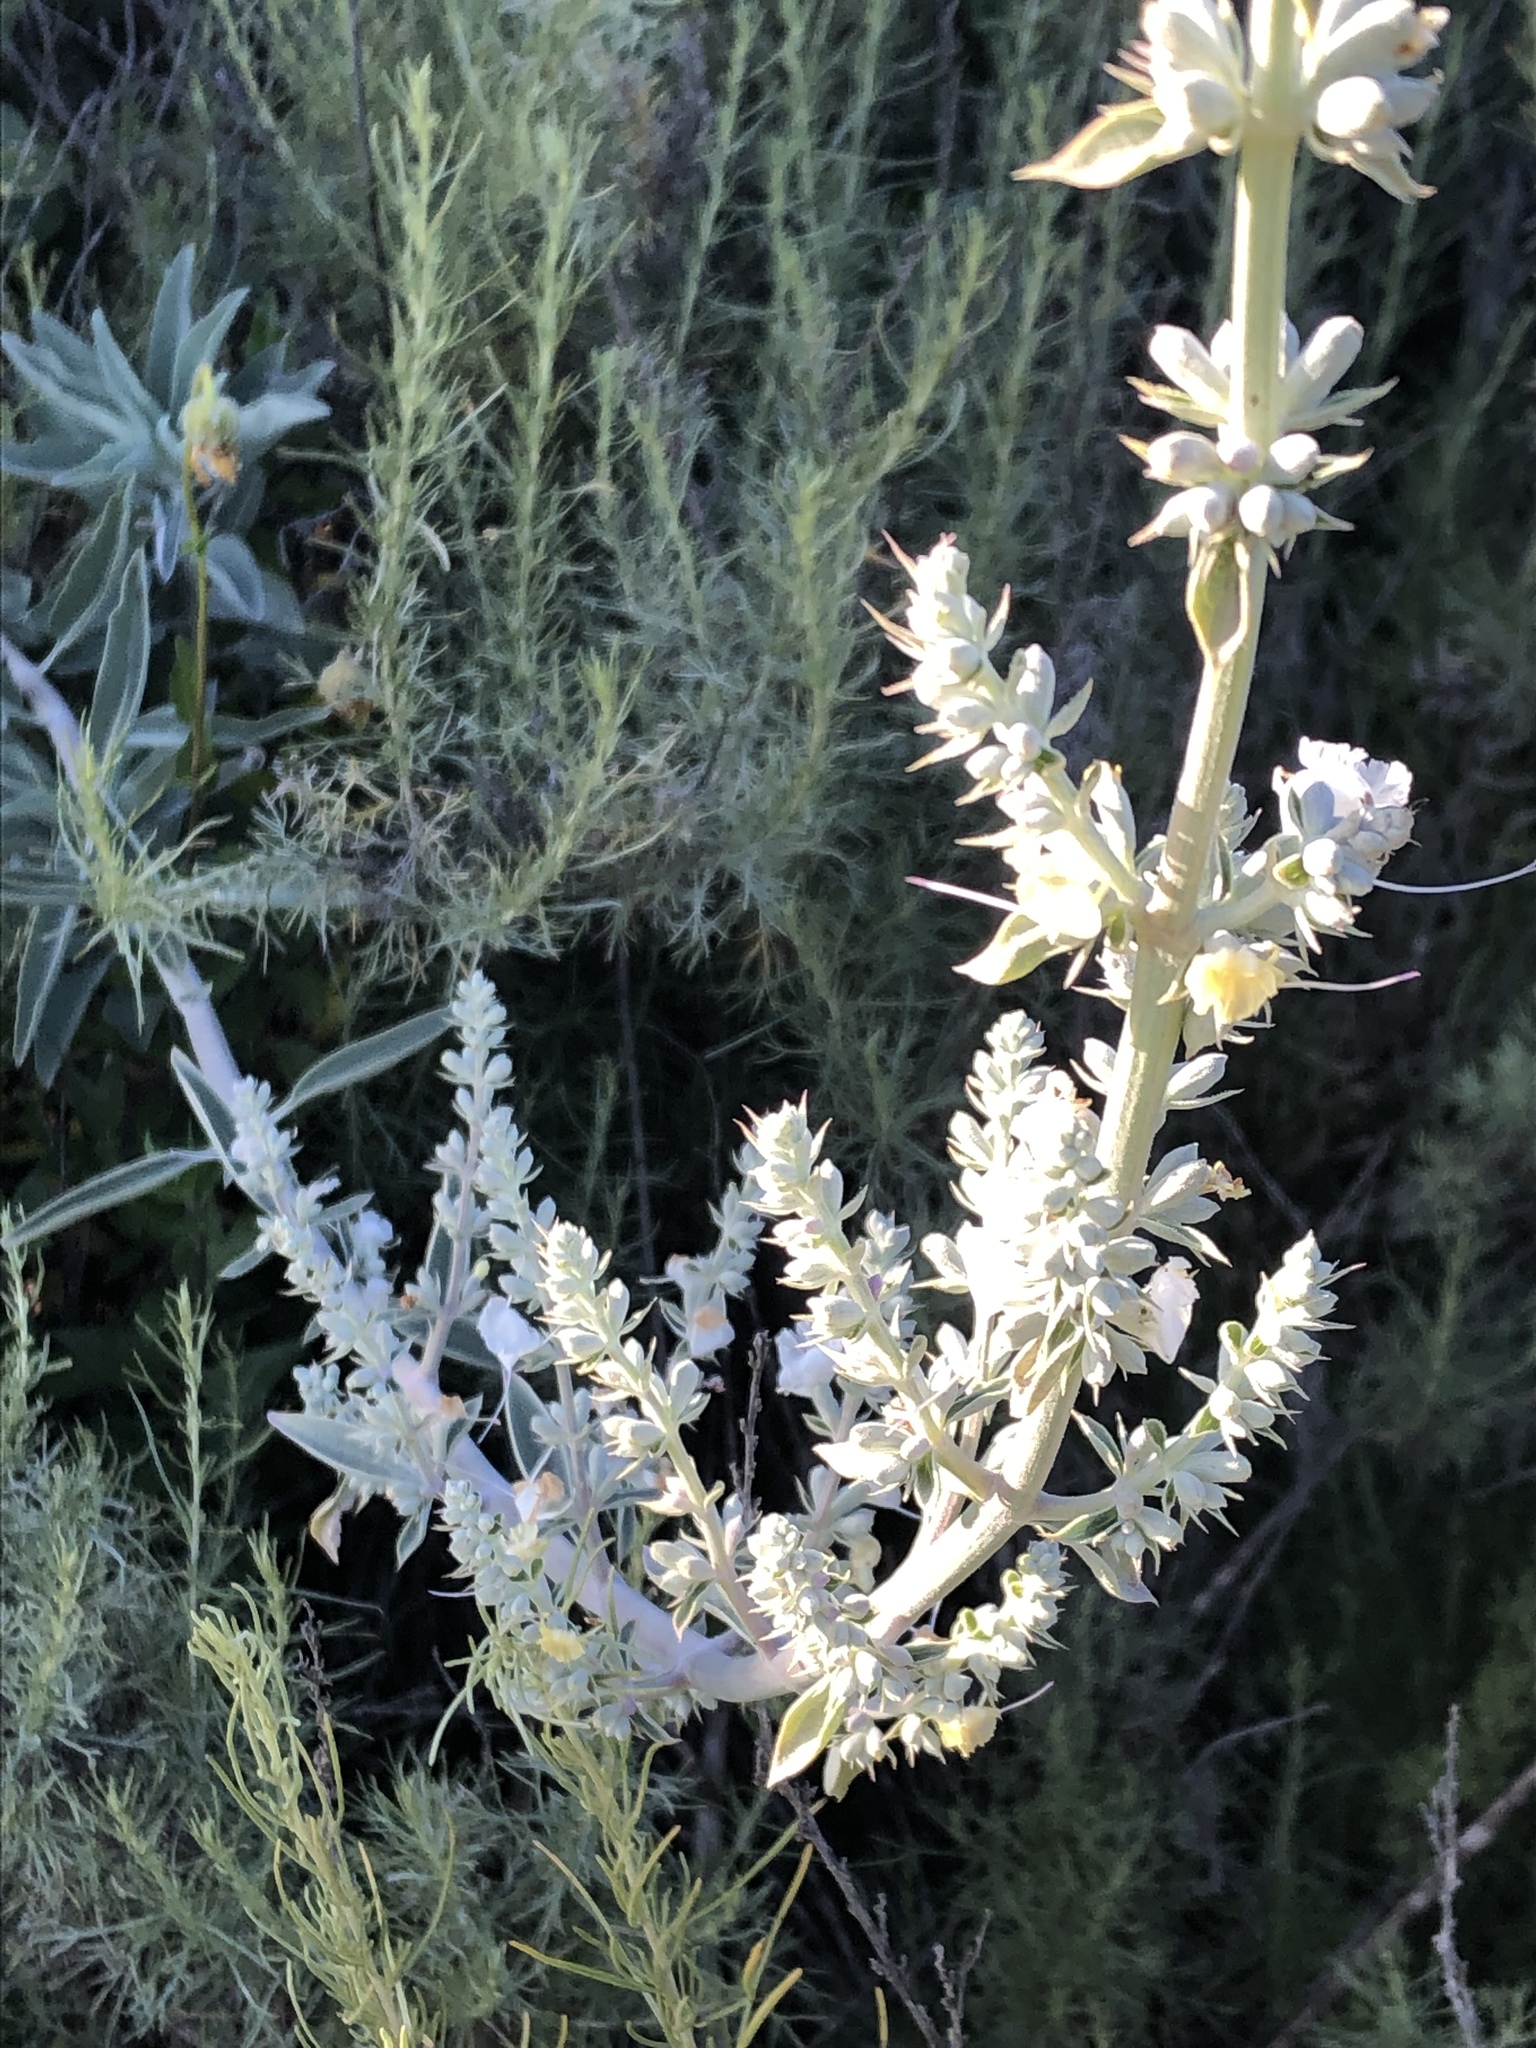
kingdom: Plantae
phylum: Tracheophyta
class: Magnoliopsida
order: Lamiales
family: Lamiaceae
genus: Salvia
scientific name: Salvia apiana
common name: White sage
